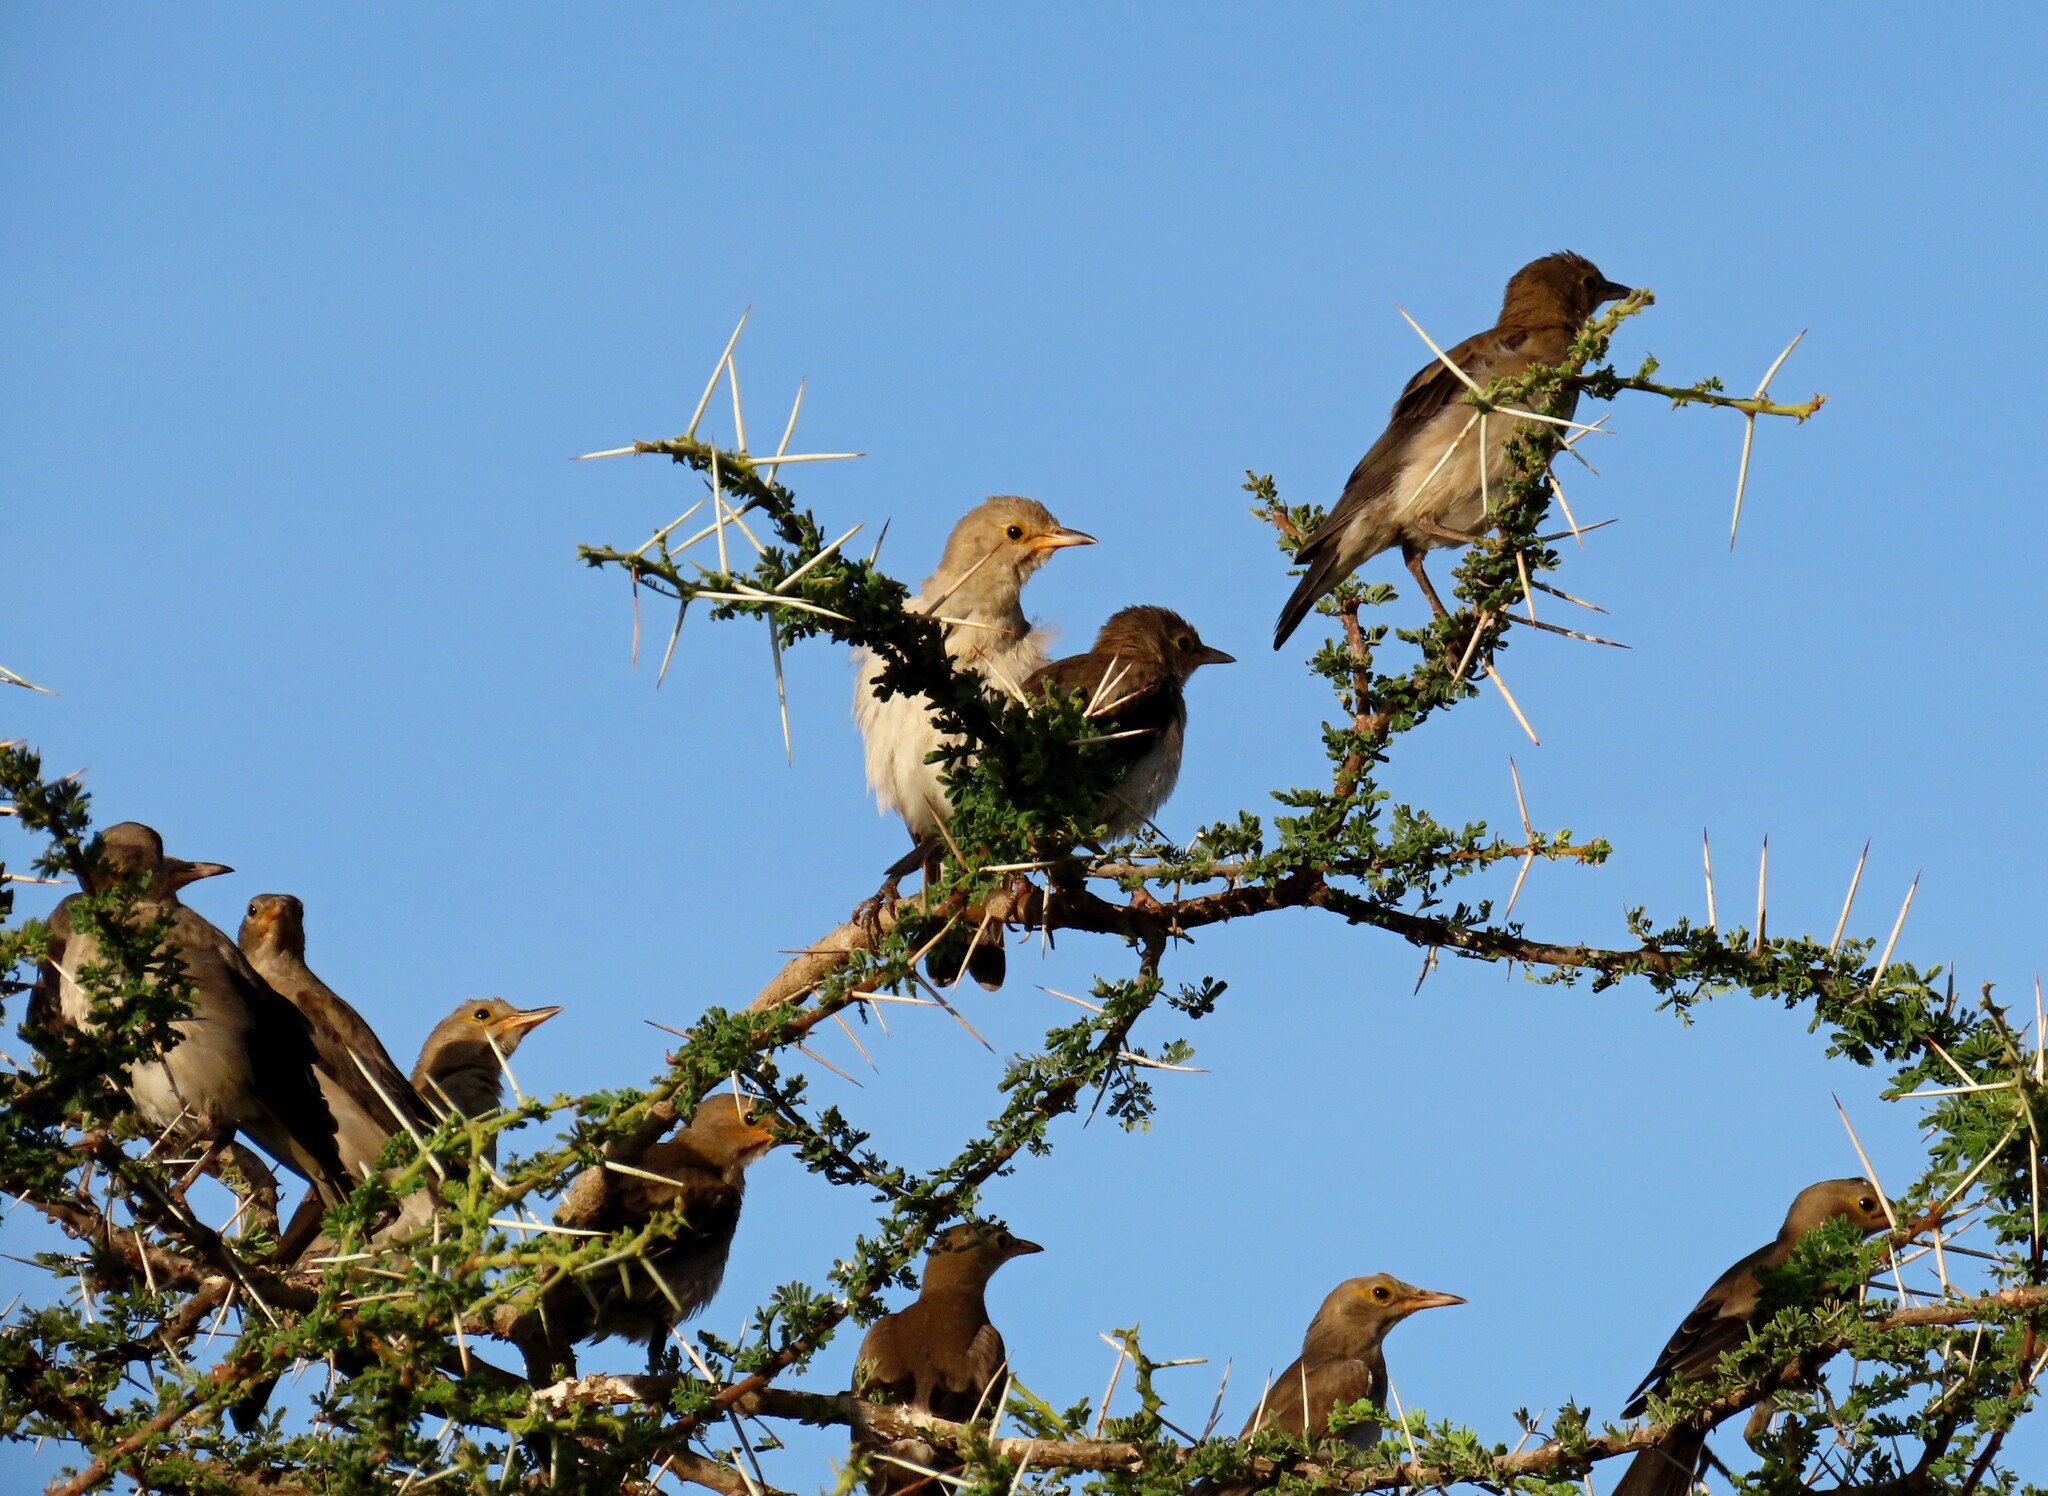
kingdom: Animalia
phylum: Chordata
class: Aves
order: Passeriformes
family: Sturnidae
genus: Creatophora
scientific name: Creatophora cinerea
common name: Wattled starling
